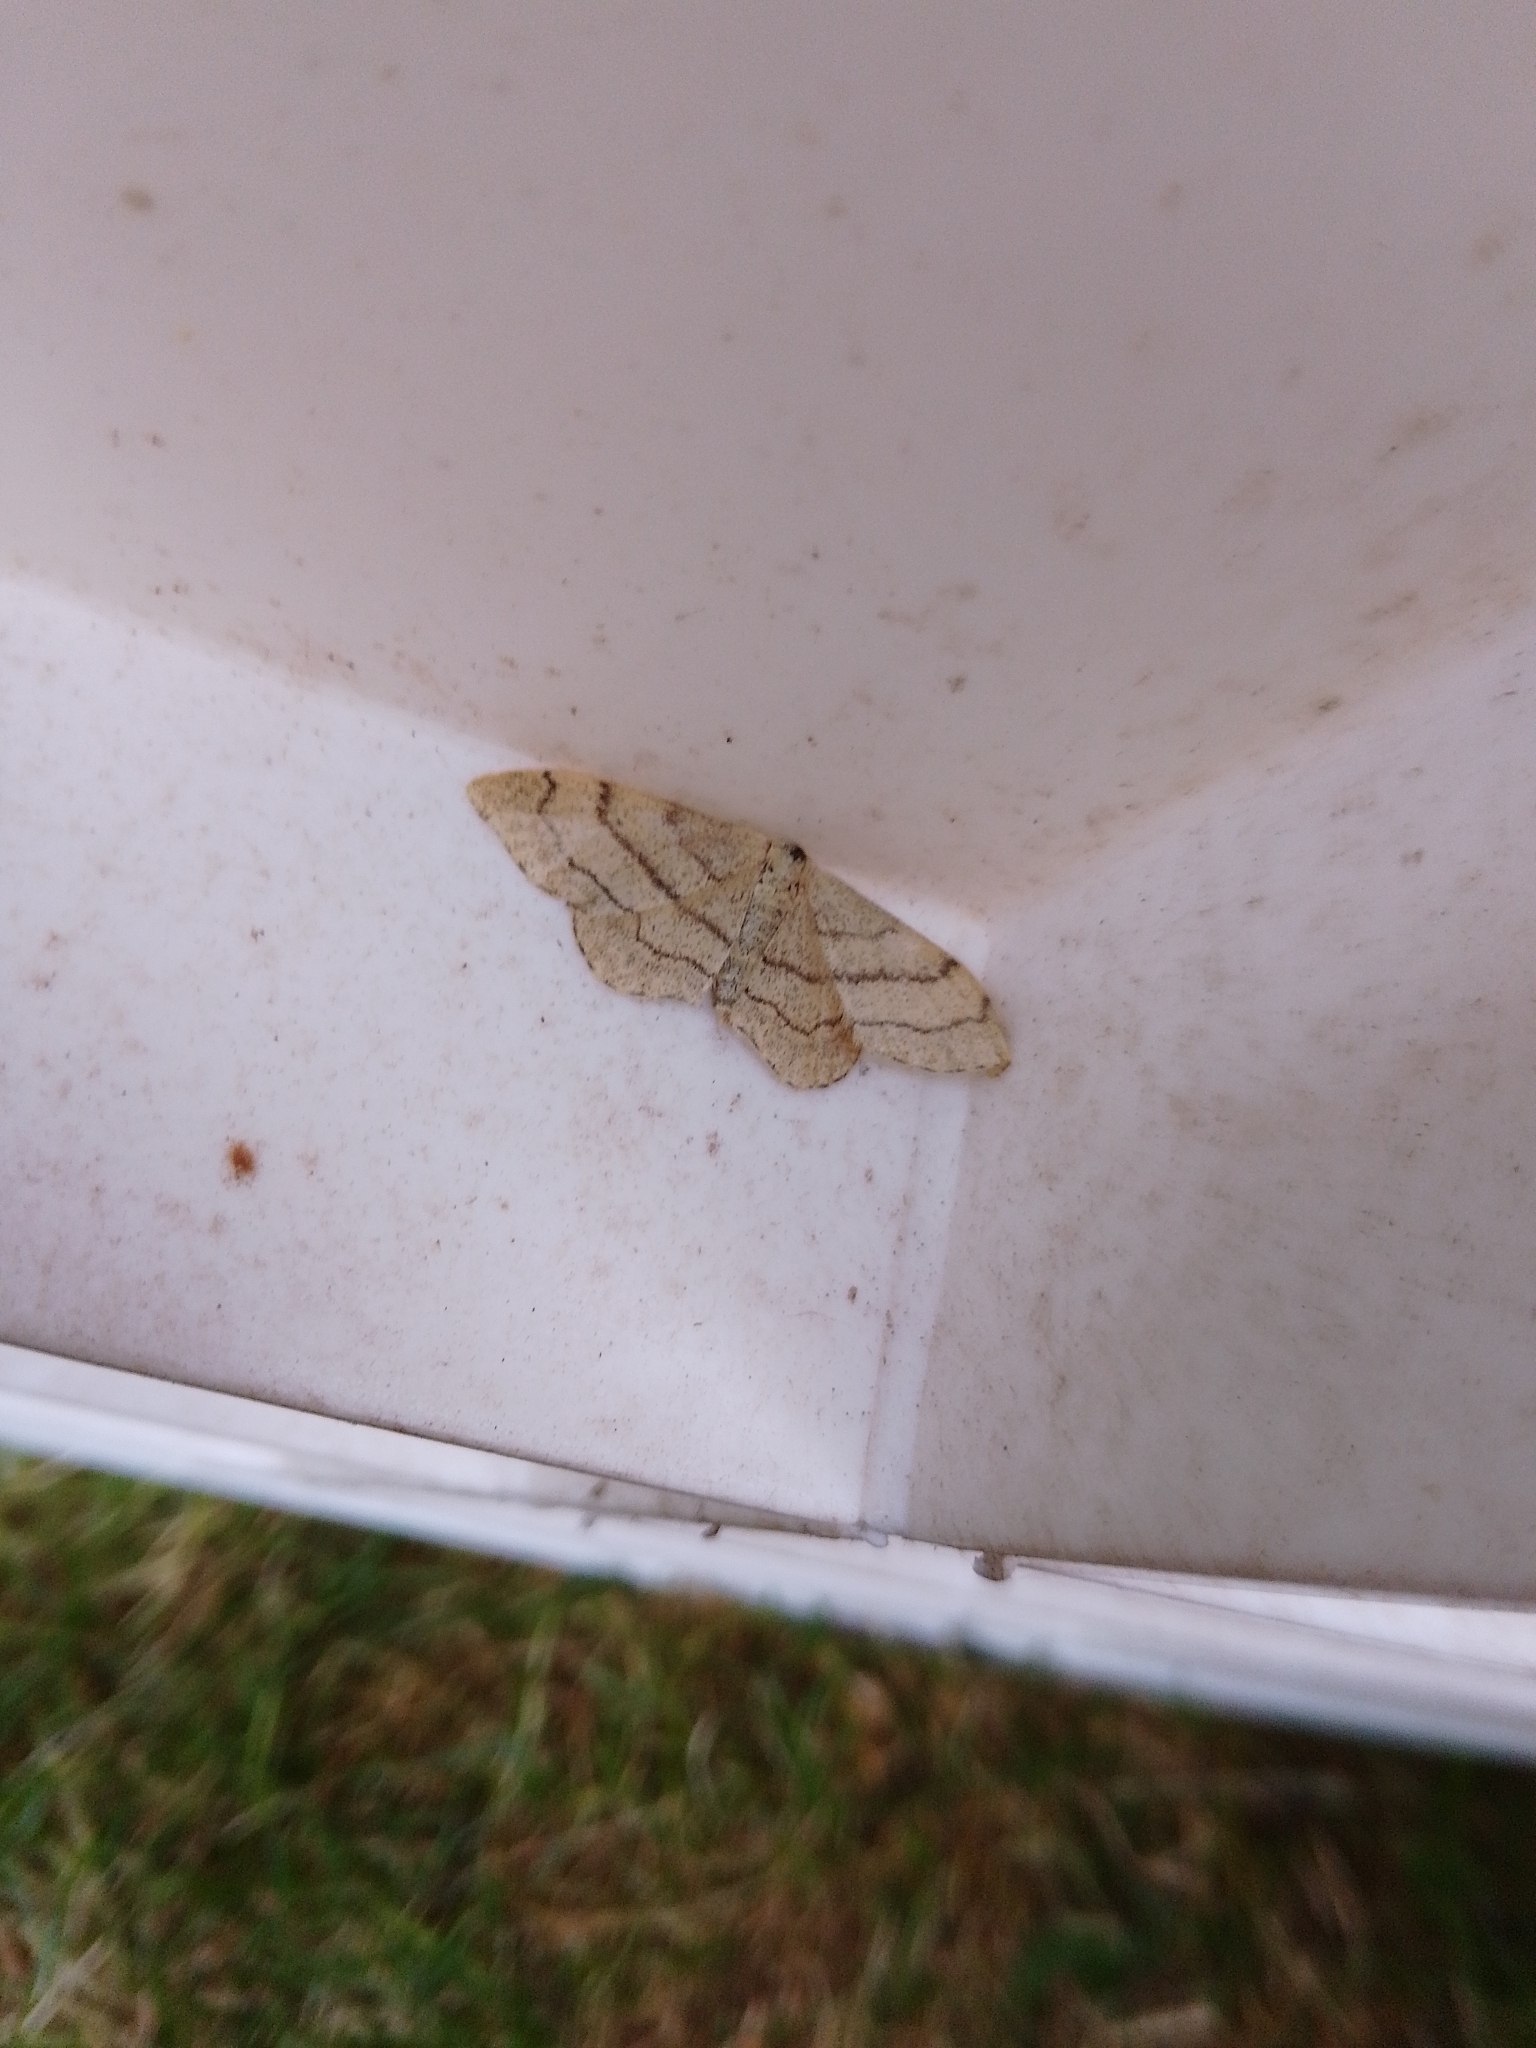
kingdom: Animalia
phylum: Arthropoda
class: Insecta
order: Lepidoptera
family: Geometridae
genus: Idaea
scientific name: Idaea aversata
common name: Riband wave
